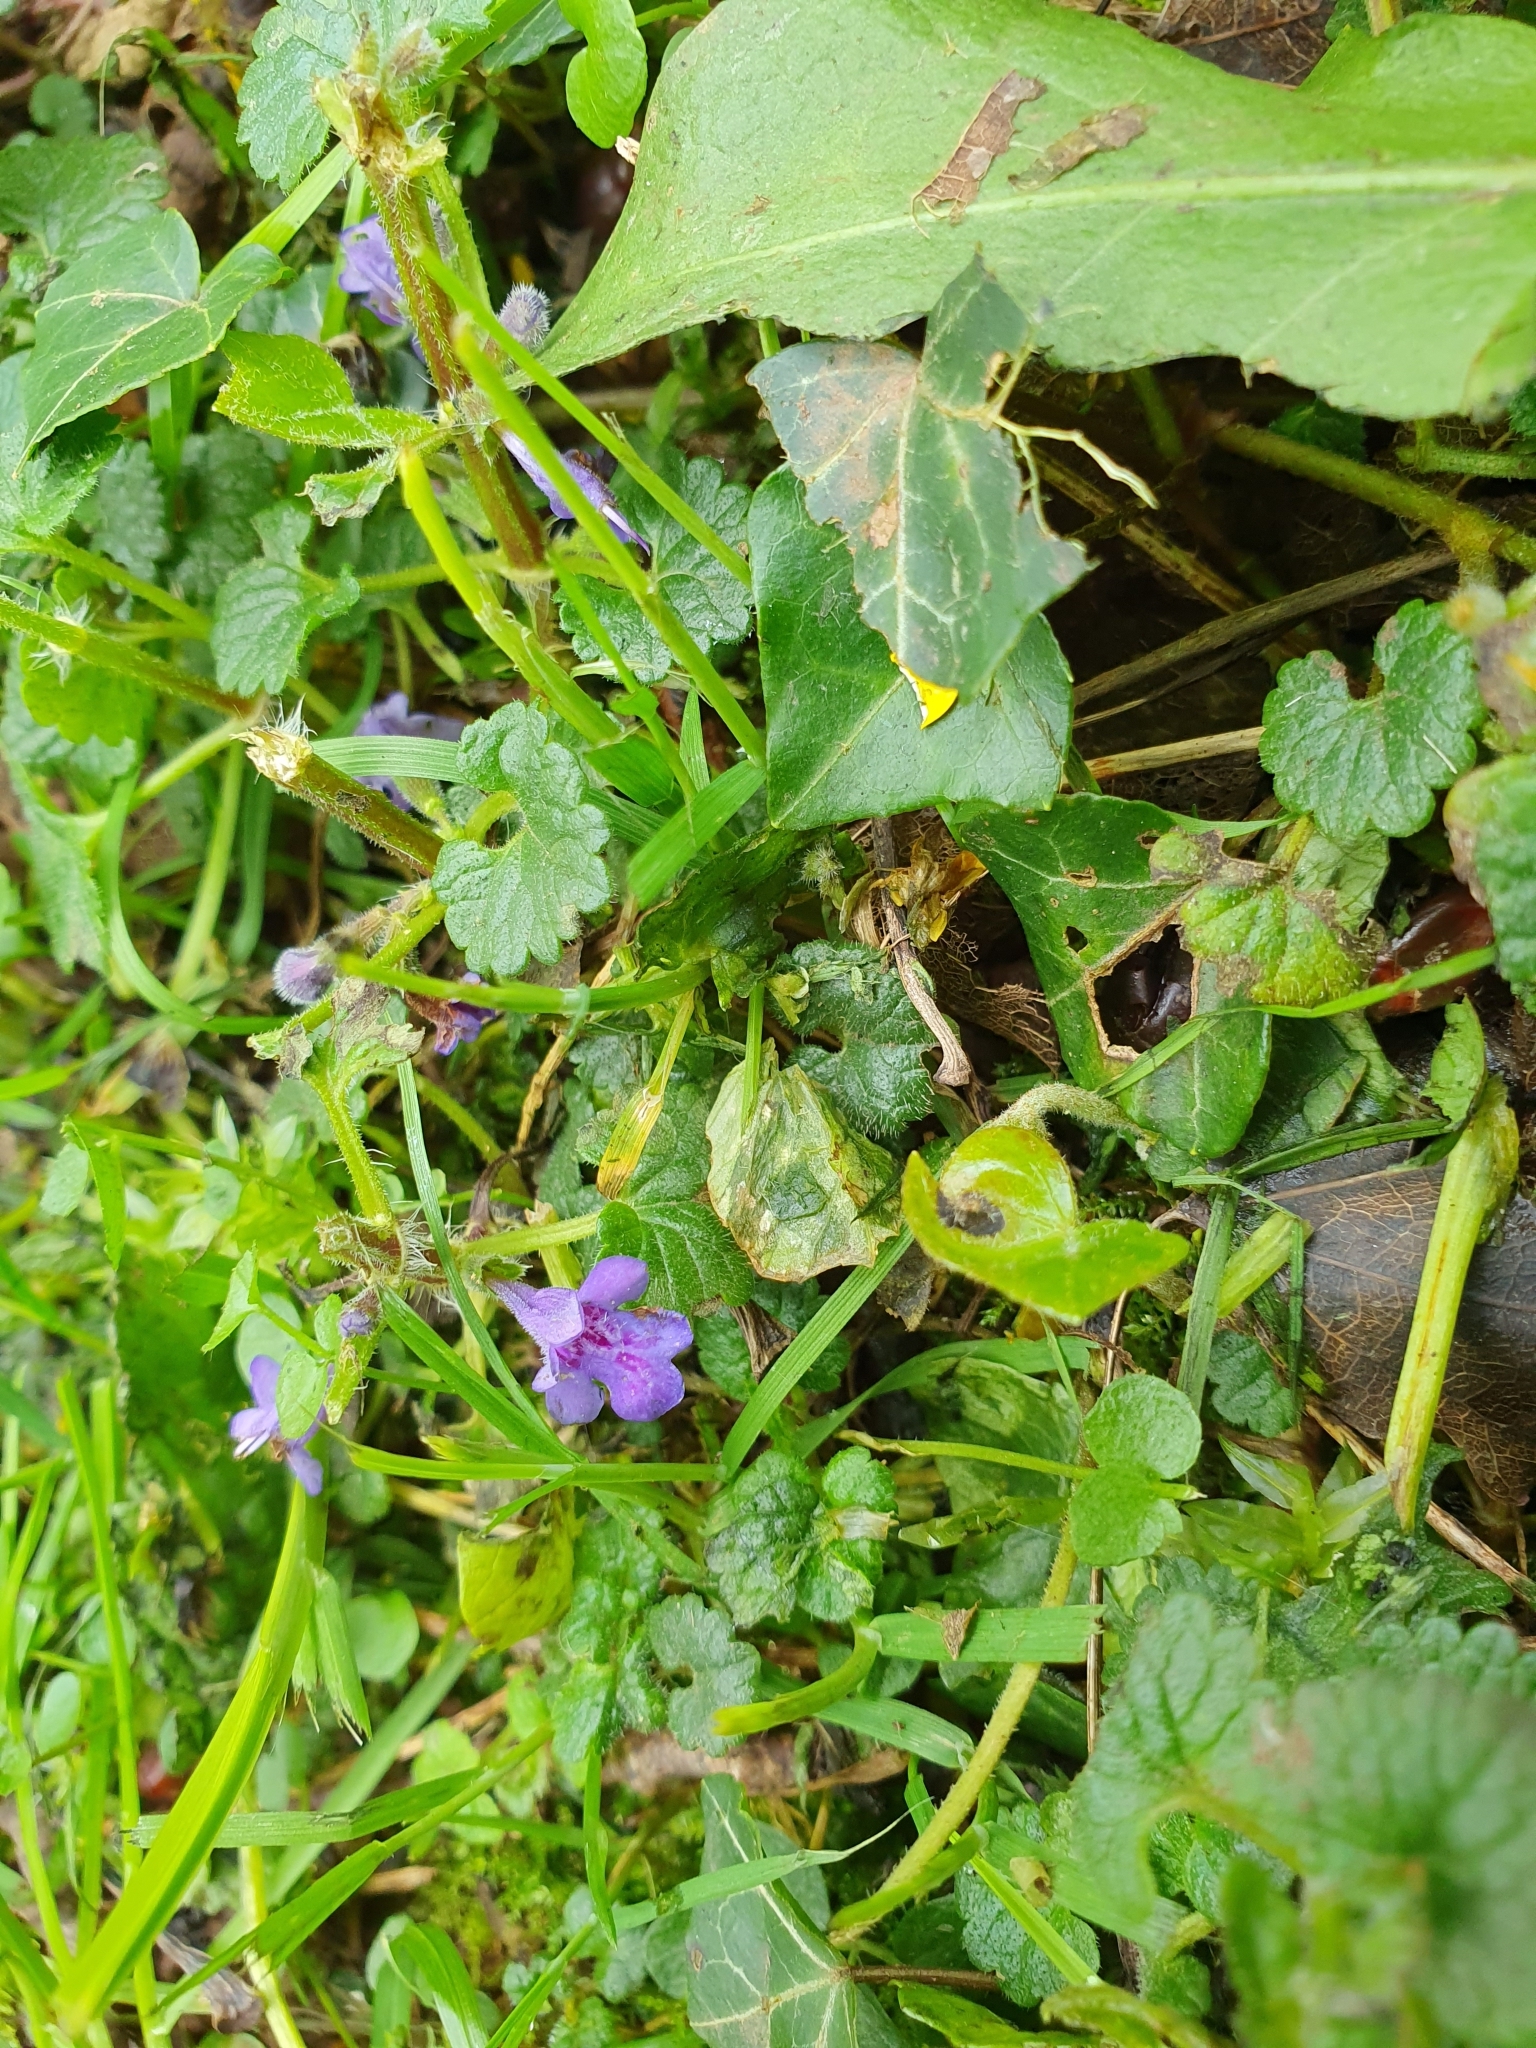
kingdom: Plantae
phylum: Tracheophyta
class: Magnoliopsida
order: Lamiales
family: Lamiaceae
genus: Glechoma
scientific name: Glechoma hederacea
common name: Ground ivy
